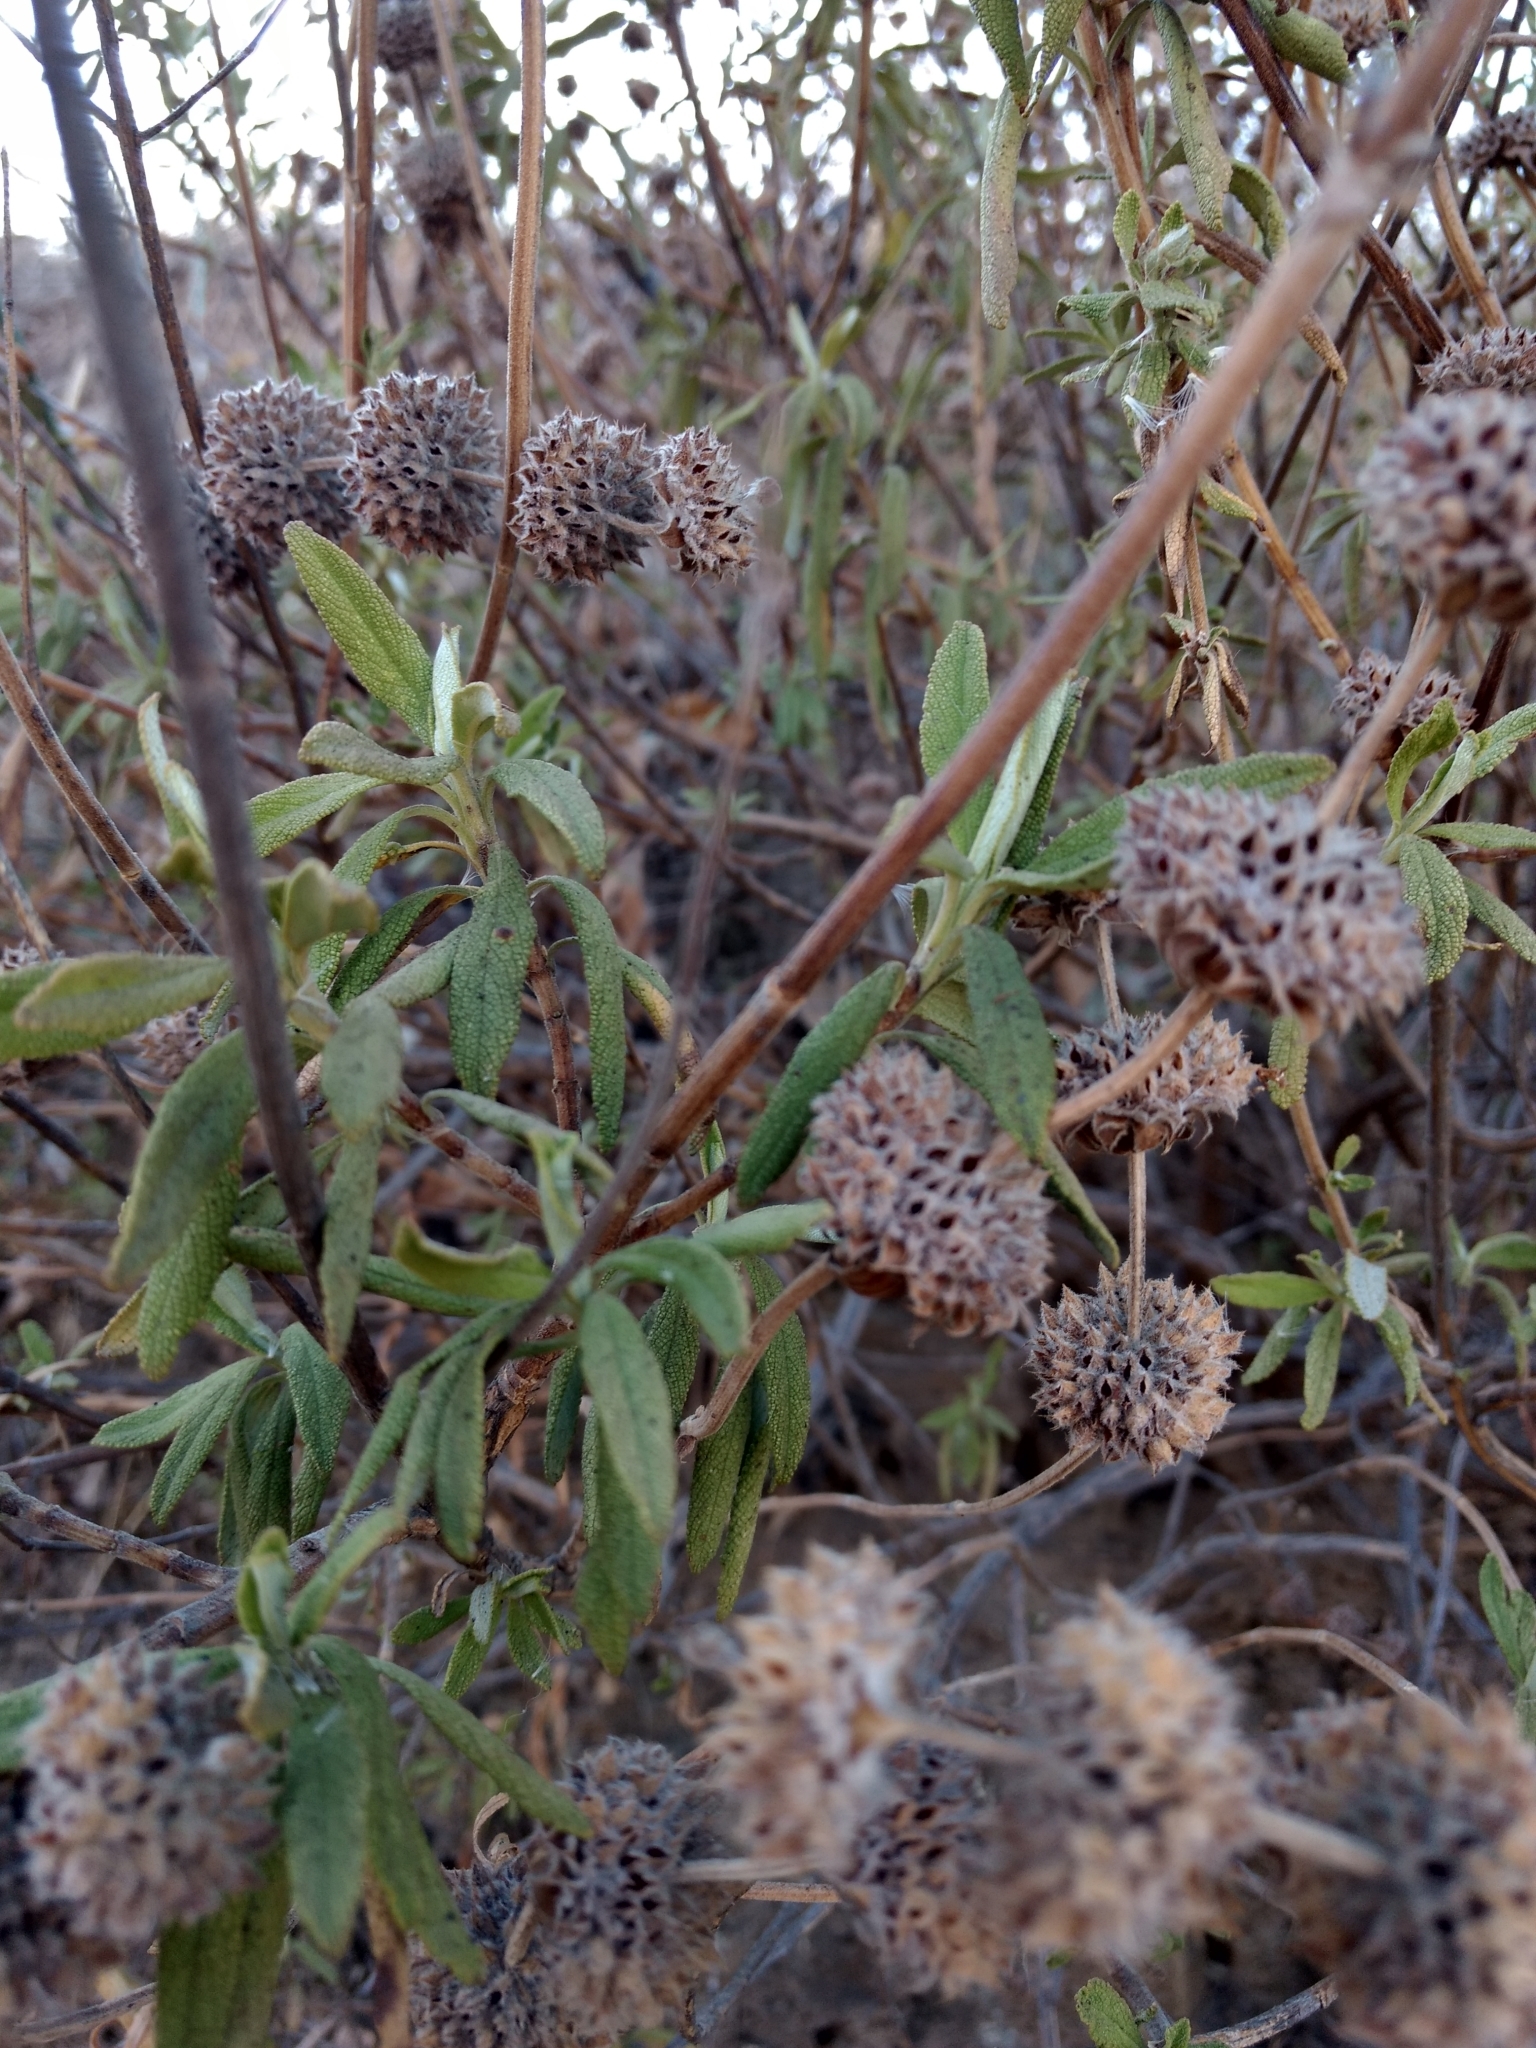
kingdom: Plantae
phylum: Tracheophyta
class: Magnoliopsida
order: Lamiales
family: Lamiaceae
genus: Salvia
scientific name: Salvia mellifera
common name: Black sage
